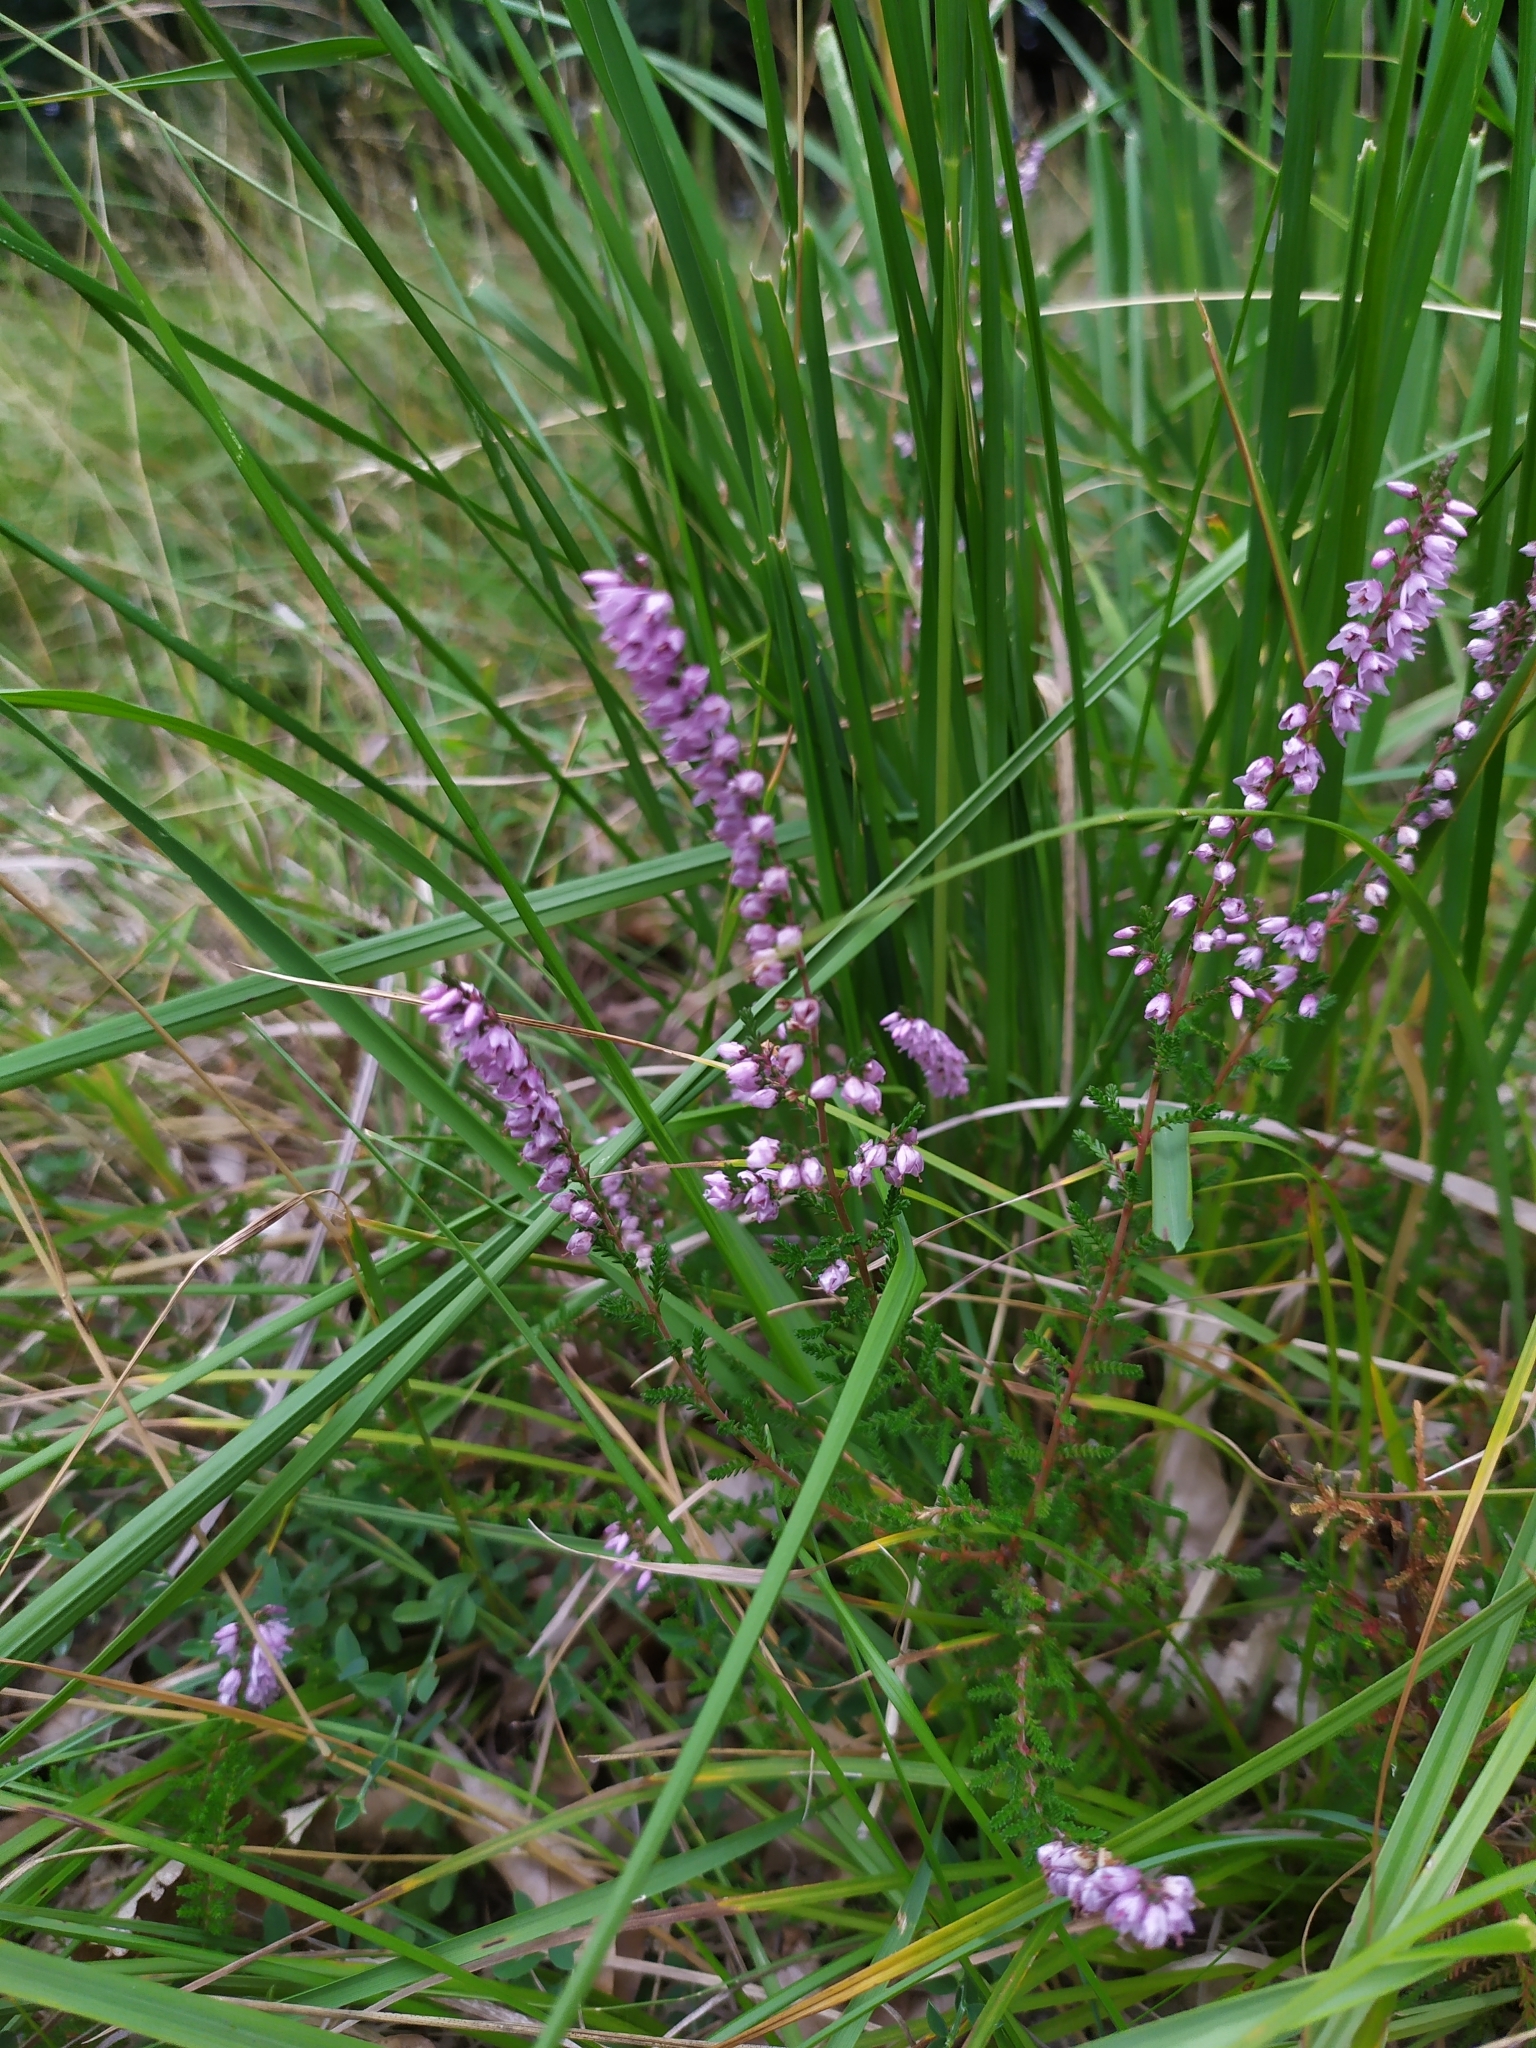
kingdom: Plantae
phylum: Tracheophyta
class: Magnoliopsida
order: Ericales
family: Ericaceae
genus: Calluna
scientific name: Calluna vulgaris
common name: Heather
